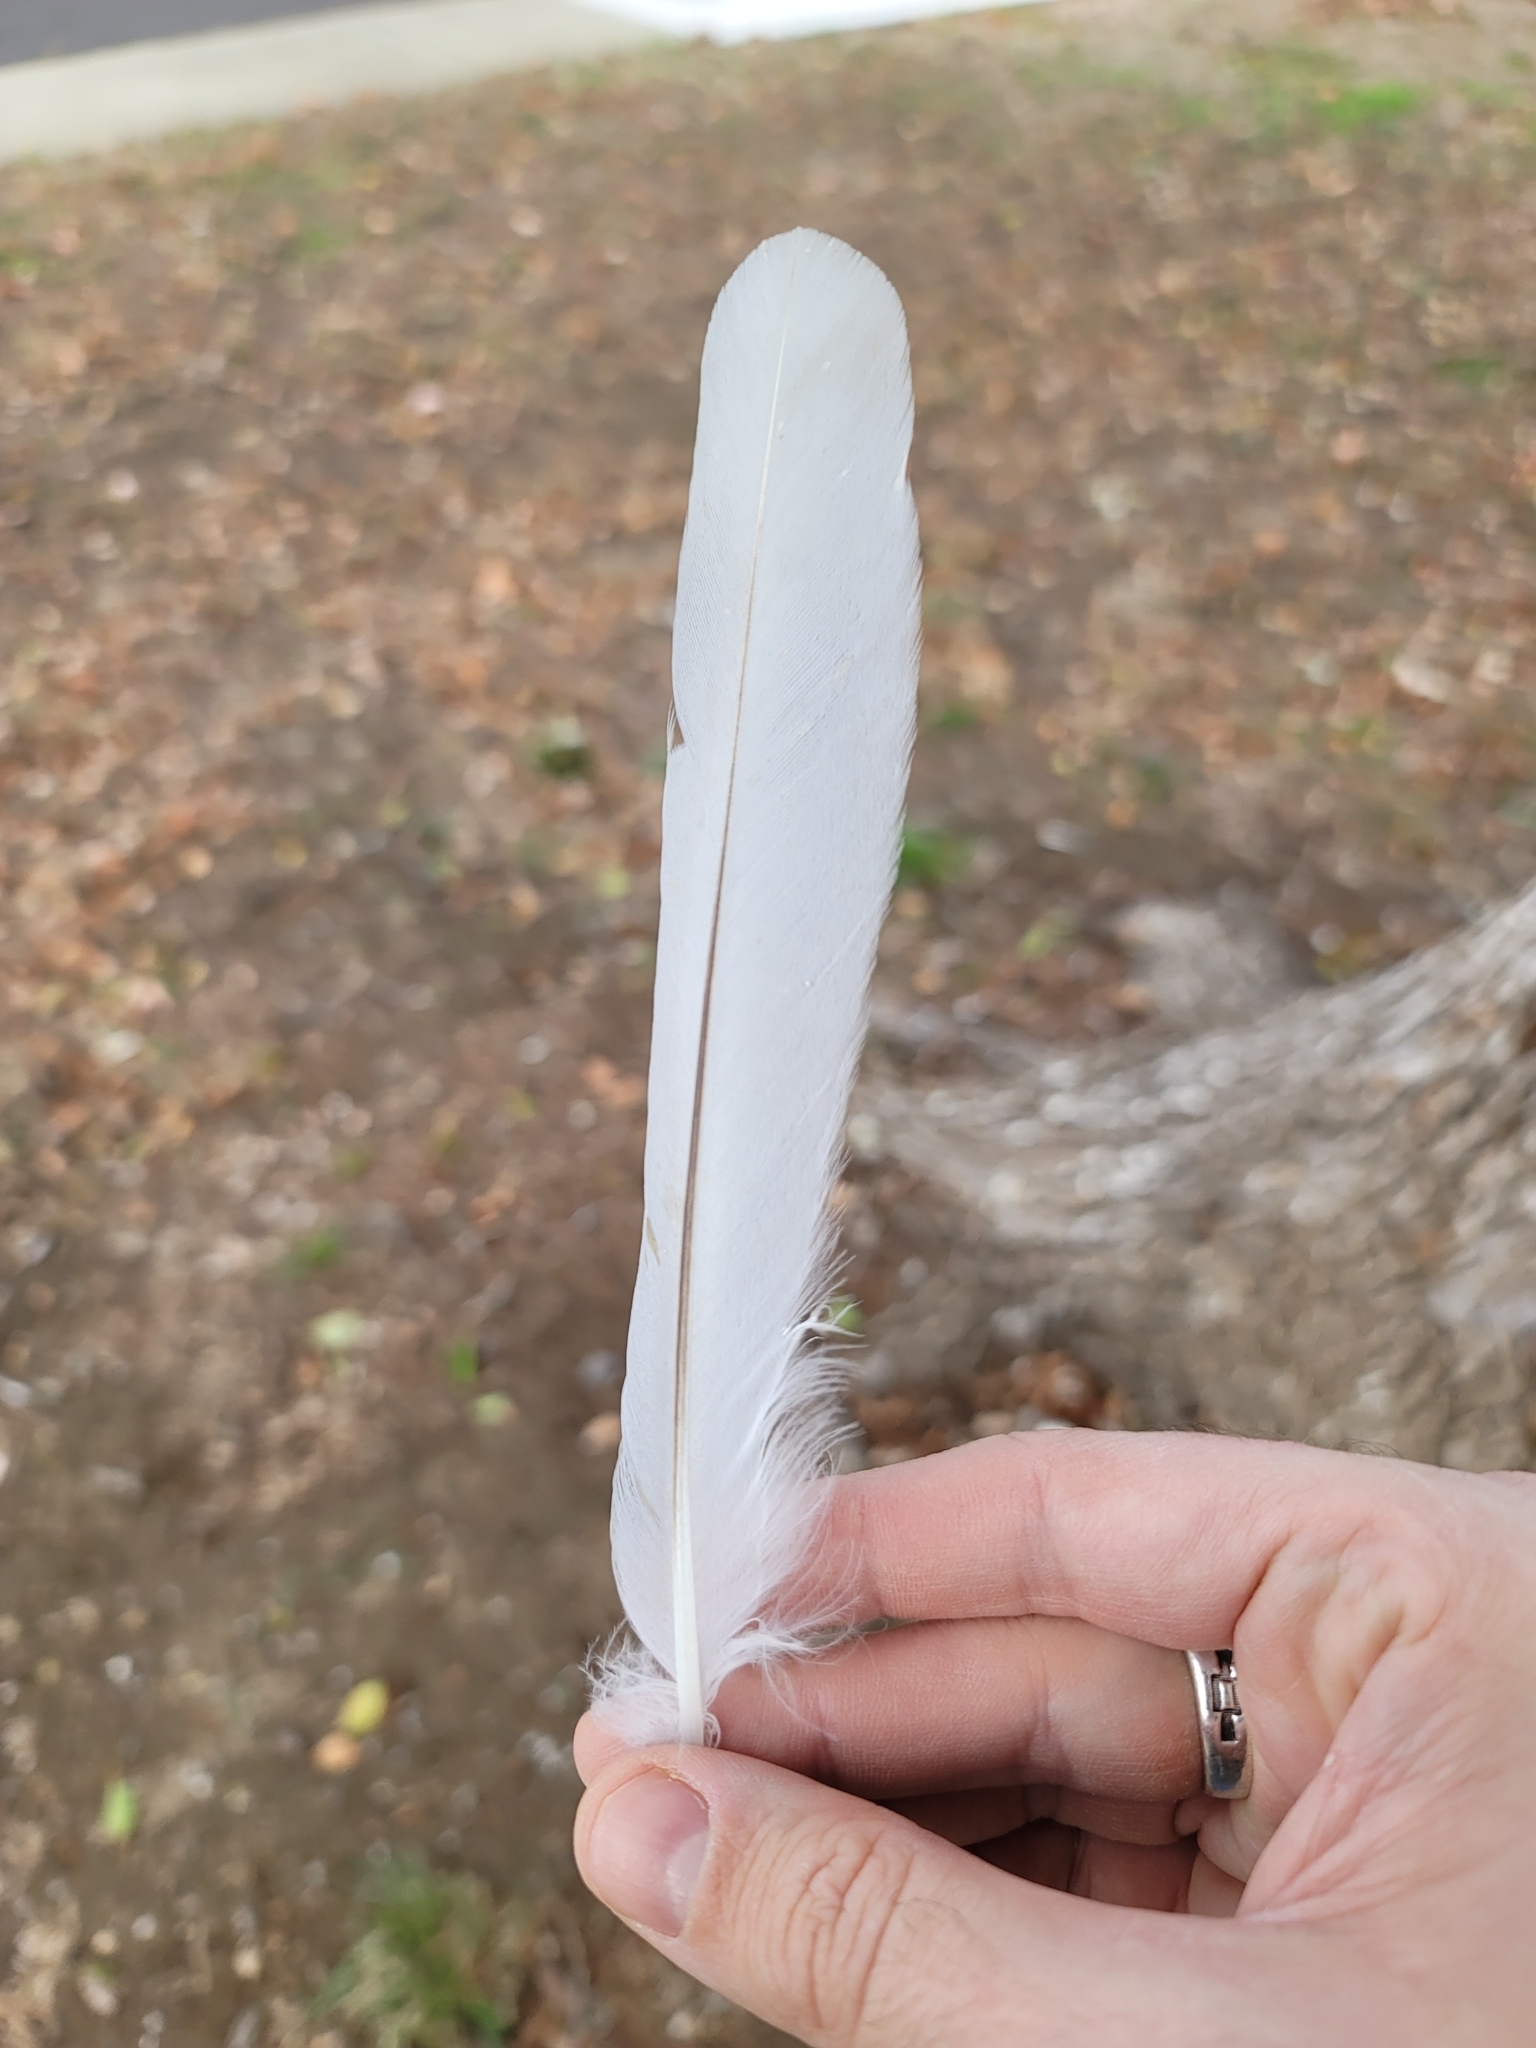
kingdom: Animalia
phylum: Chordata
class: Aves
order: Accipitriformes
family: Accipitridae
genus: Elanus
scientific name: Elanus leucurus
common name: White-tailed kite
